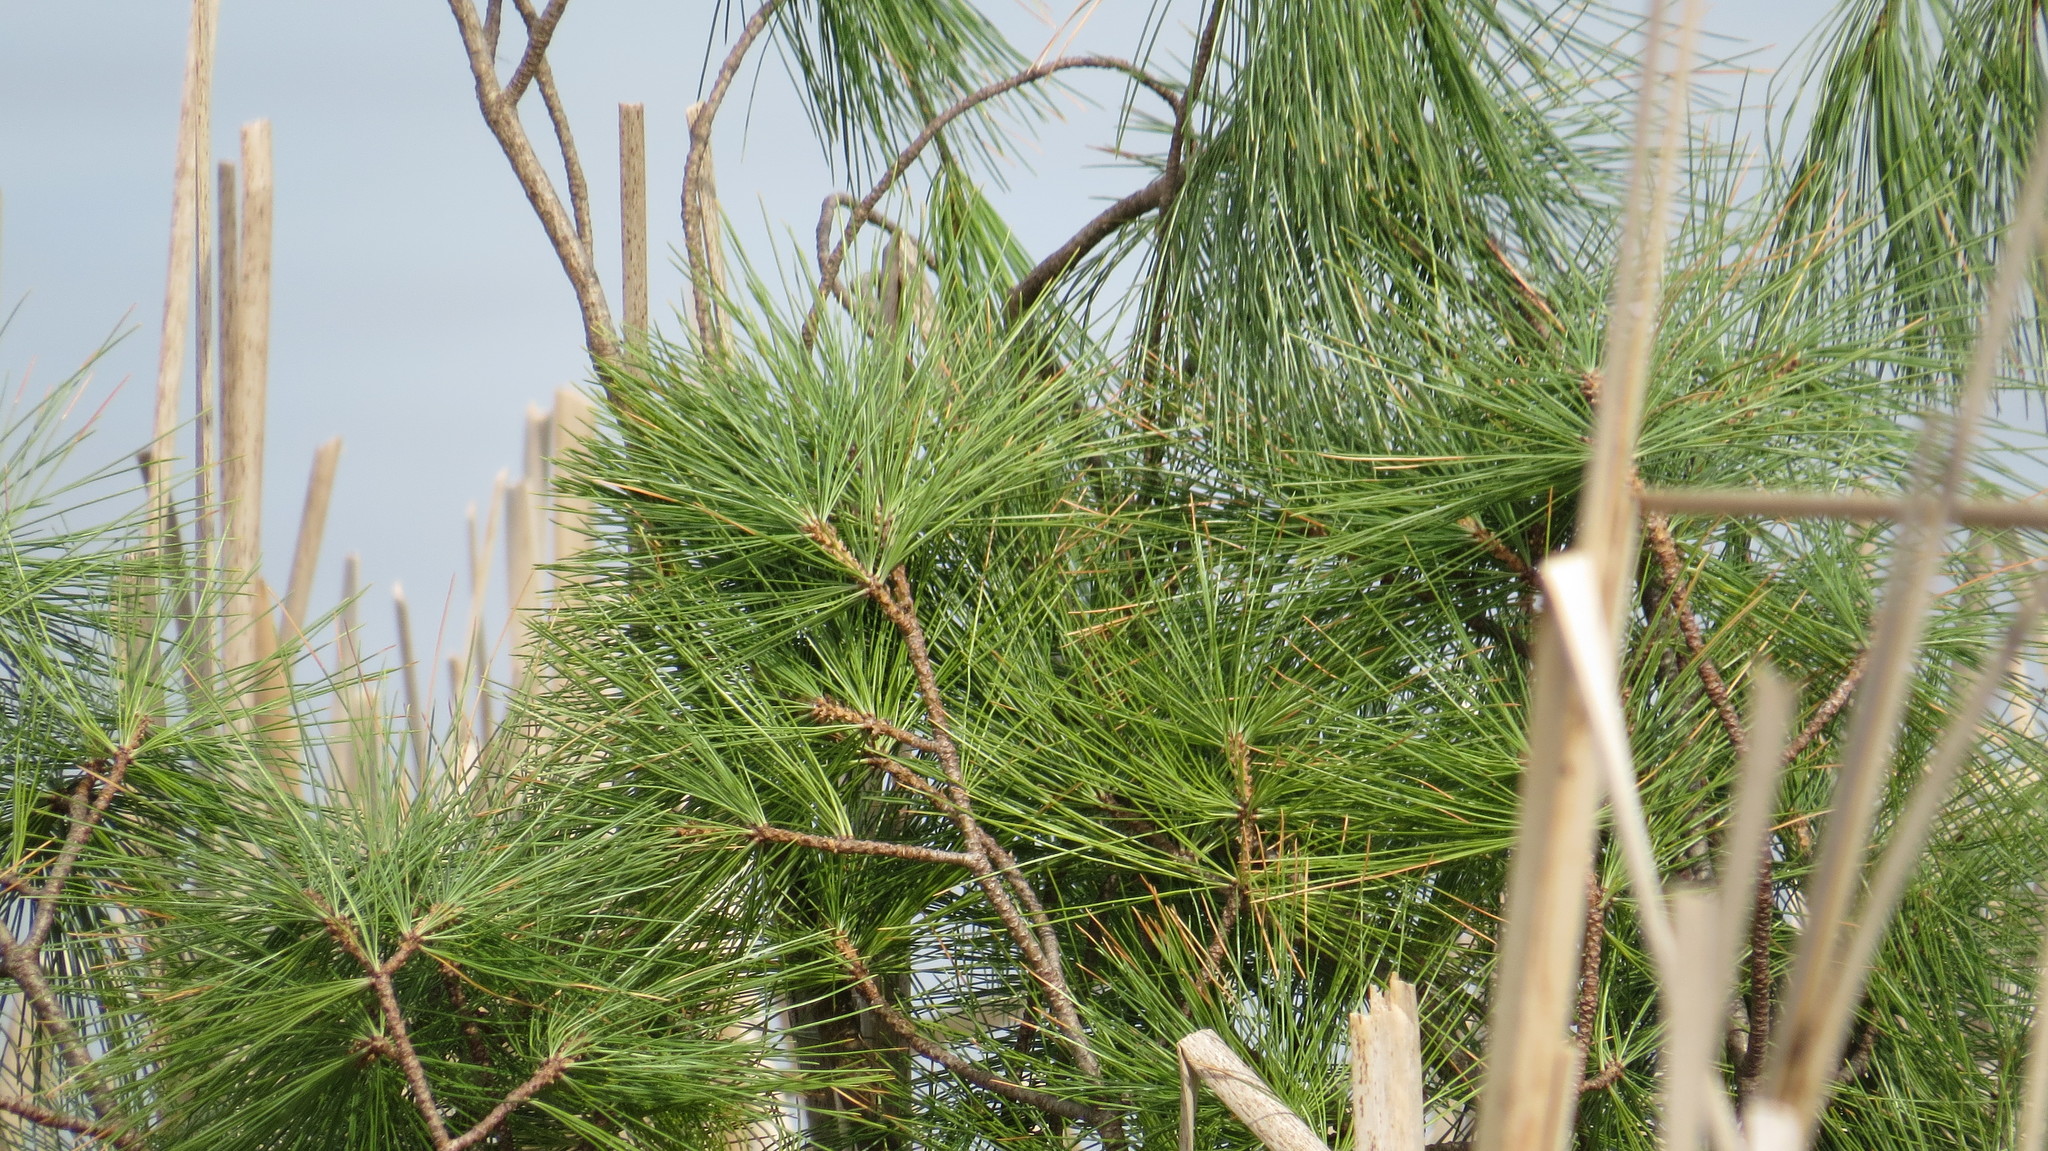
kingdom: Plantae
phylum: Tracheophyta
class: Pinopsida
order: Pinales
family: Pinaceae
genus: Pinus
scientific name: Pinus strobus
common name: Weymouth pine
